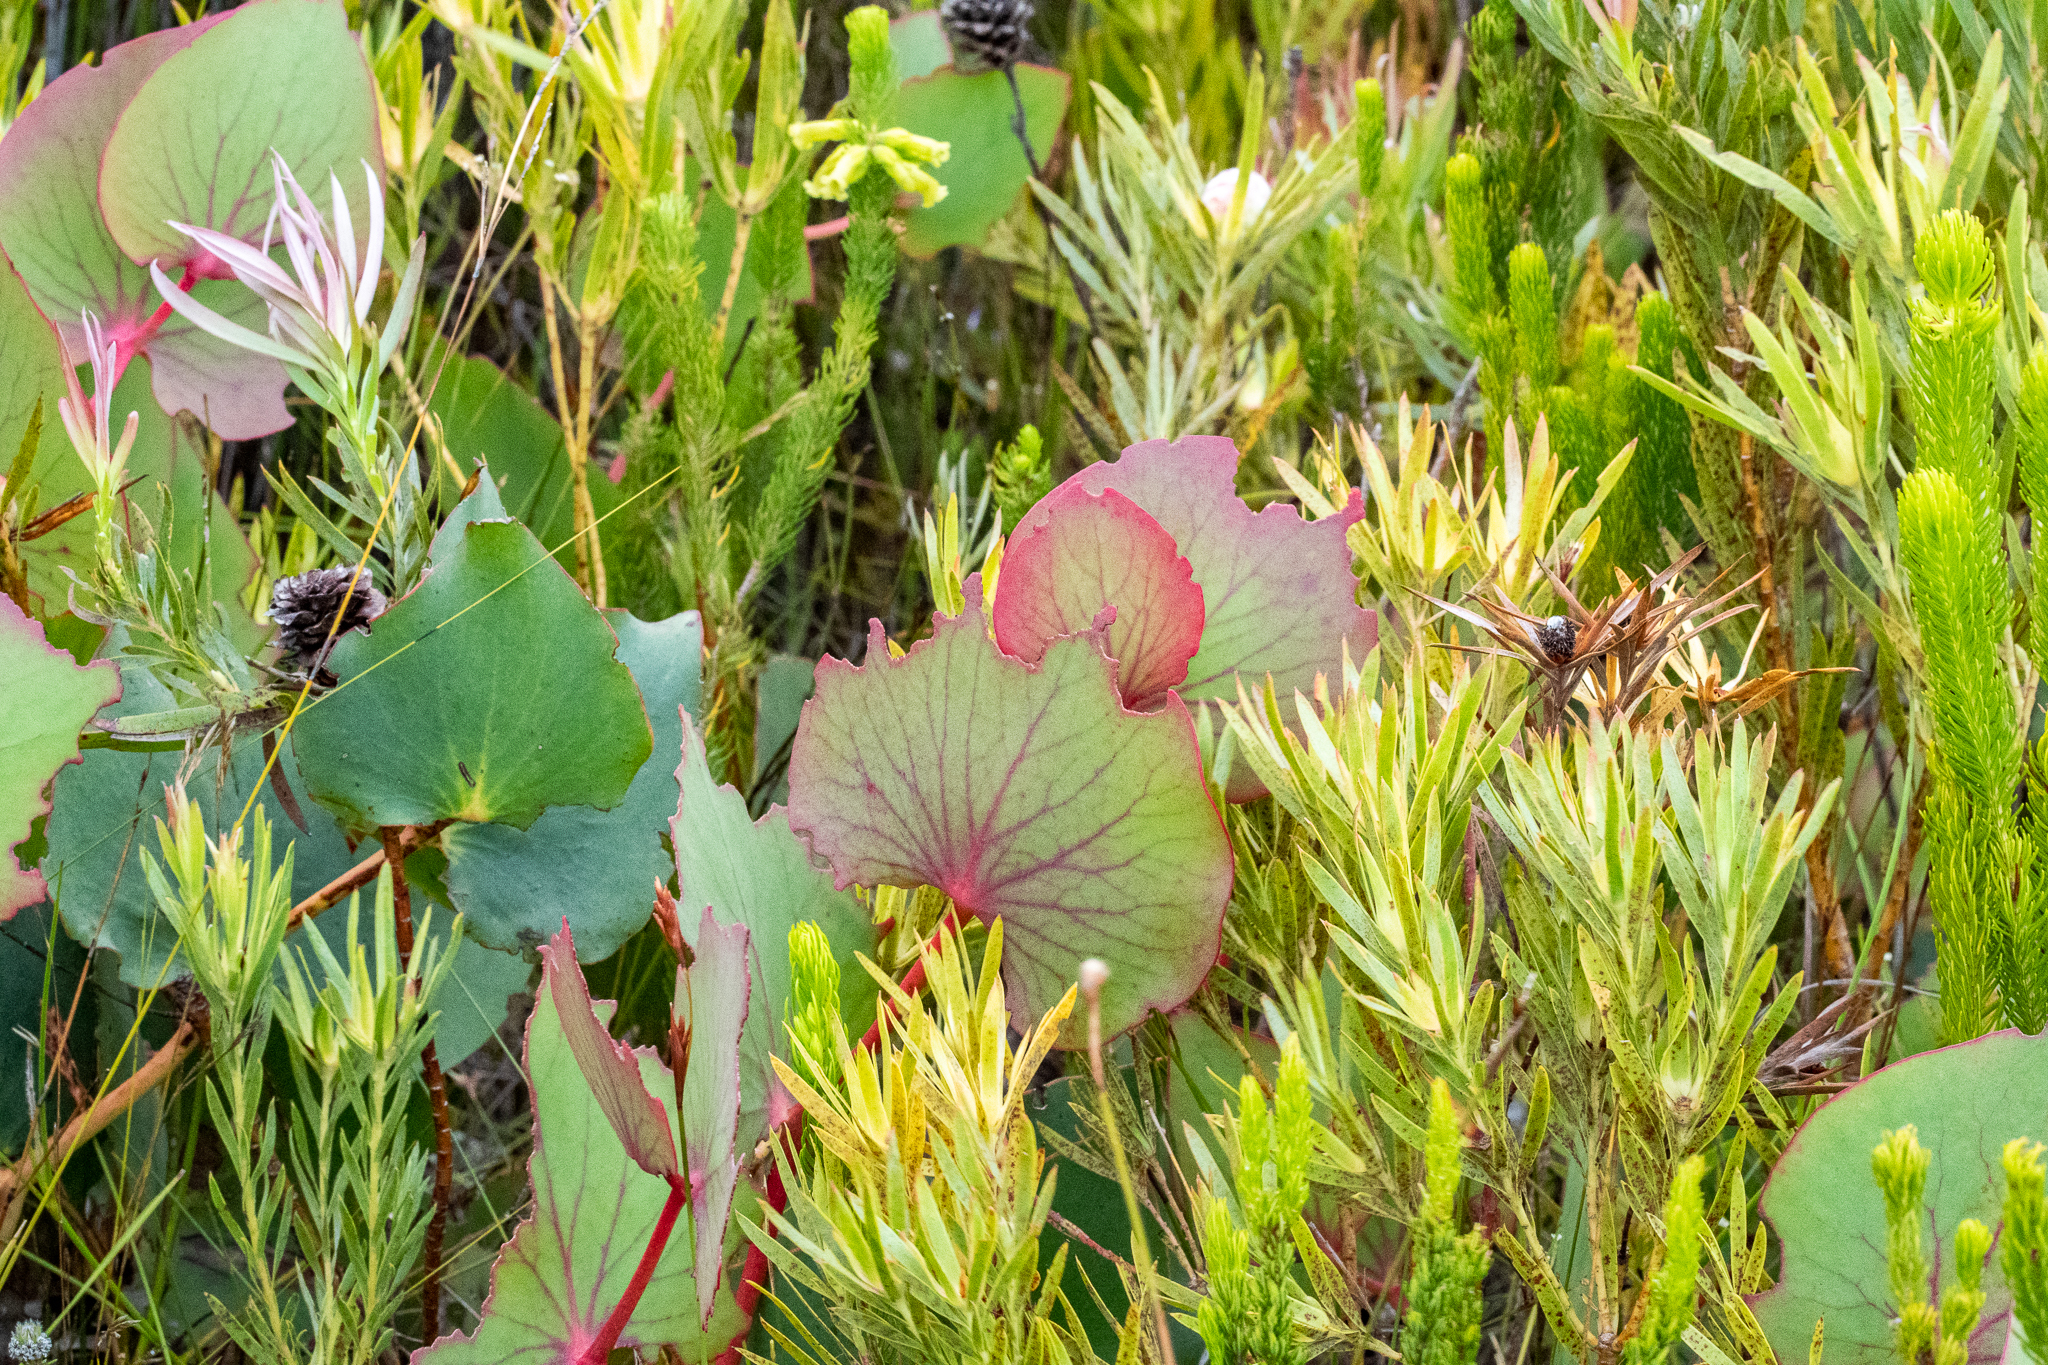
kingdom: Plantae
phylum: Tracheophyta
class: Magnoliopsida
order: Proteales
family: Proteaceae
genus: Protea
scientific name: Protea cordata
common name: Heart-leaf sugarbush
